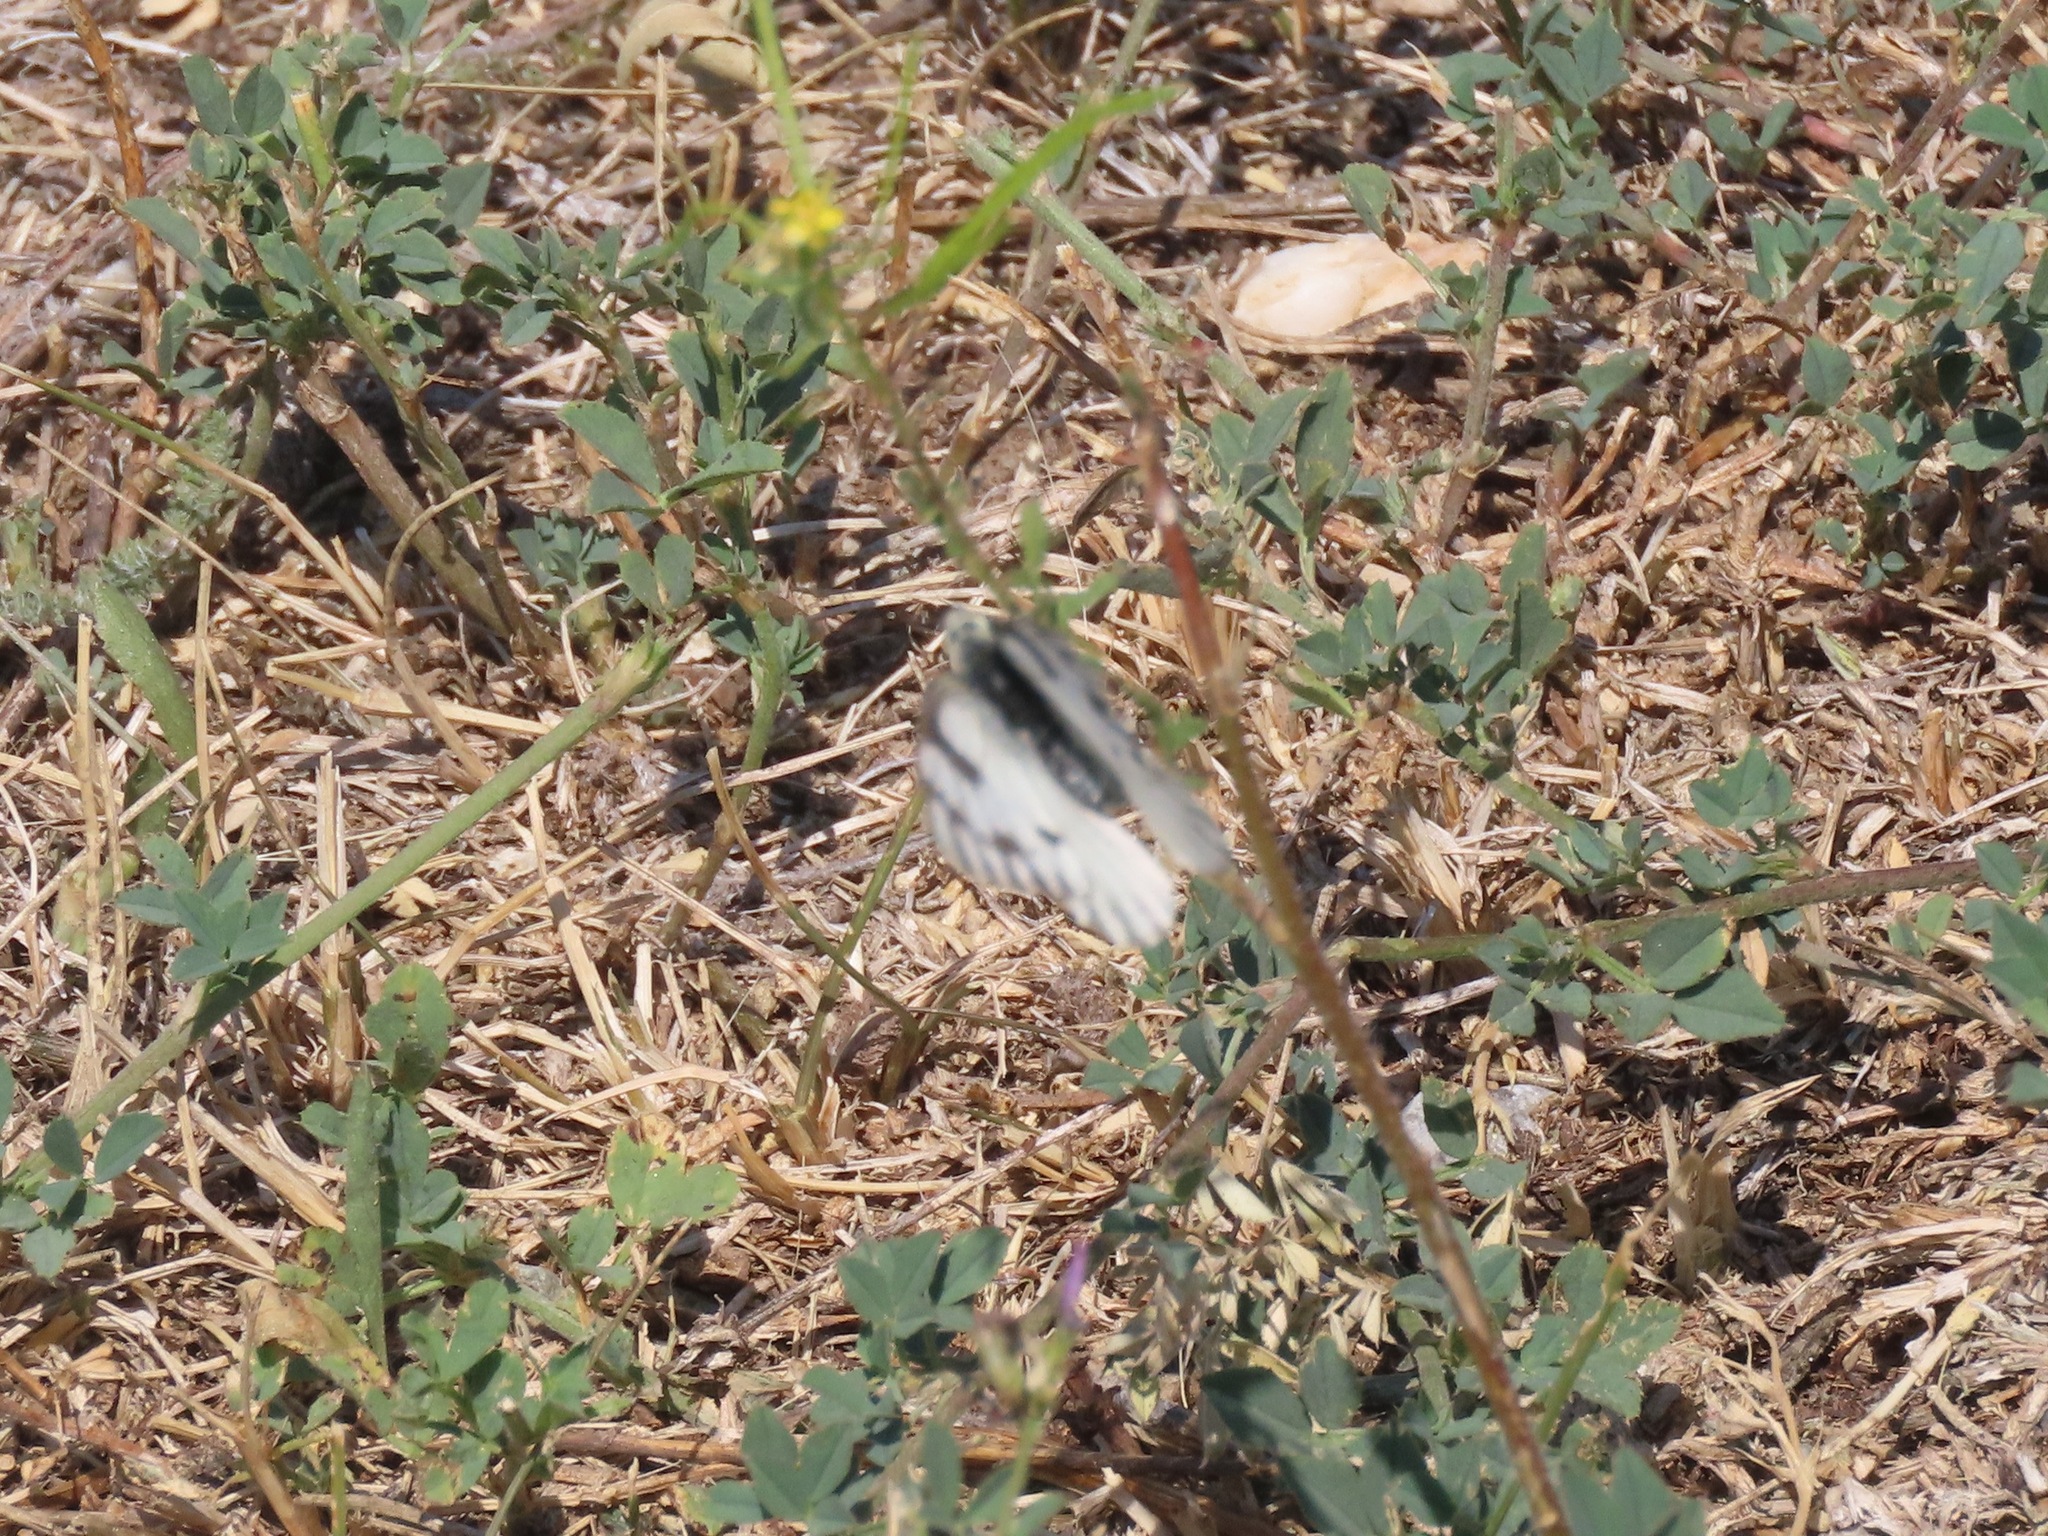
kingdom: Animalia
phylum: Arthropoda
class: Insecta
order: Lepidoptera
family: Pieridae
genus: Pontia
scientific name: Pontia occidentalis
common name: Western white
